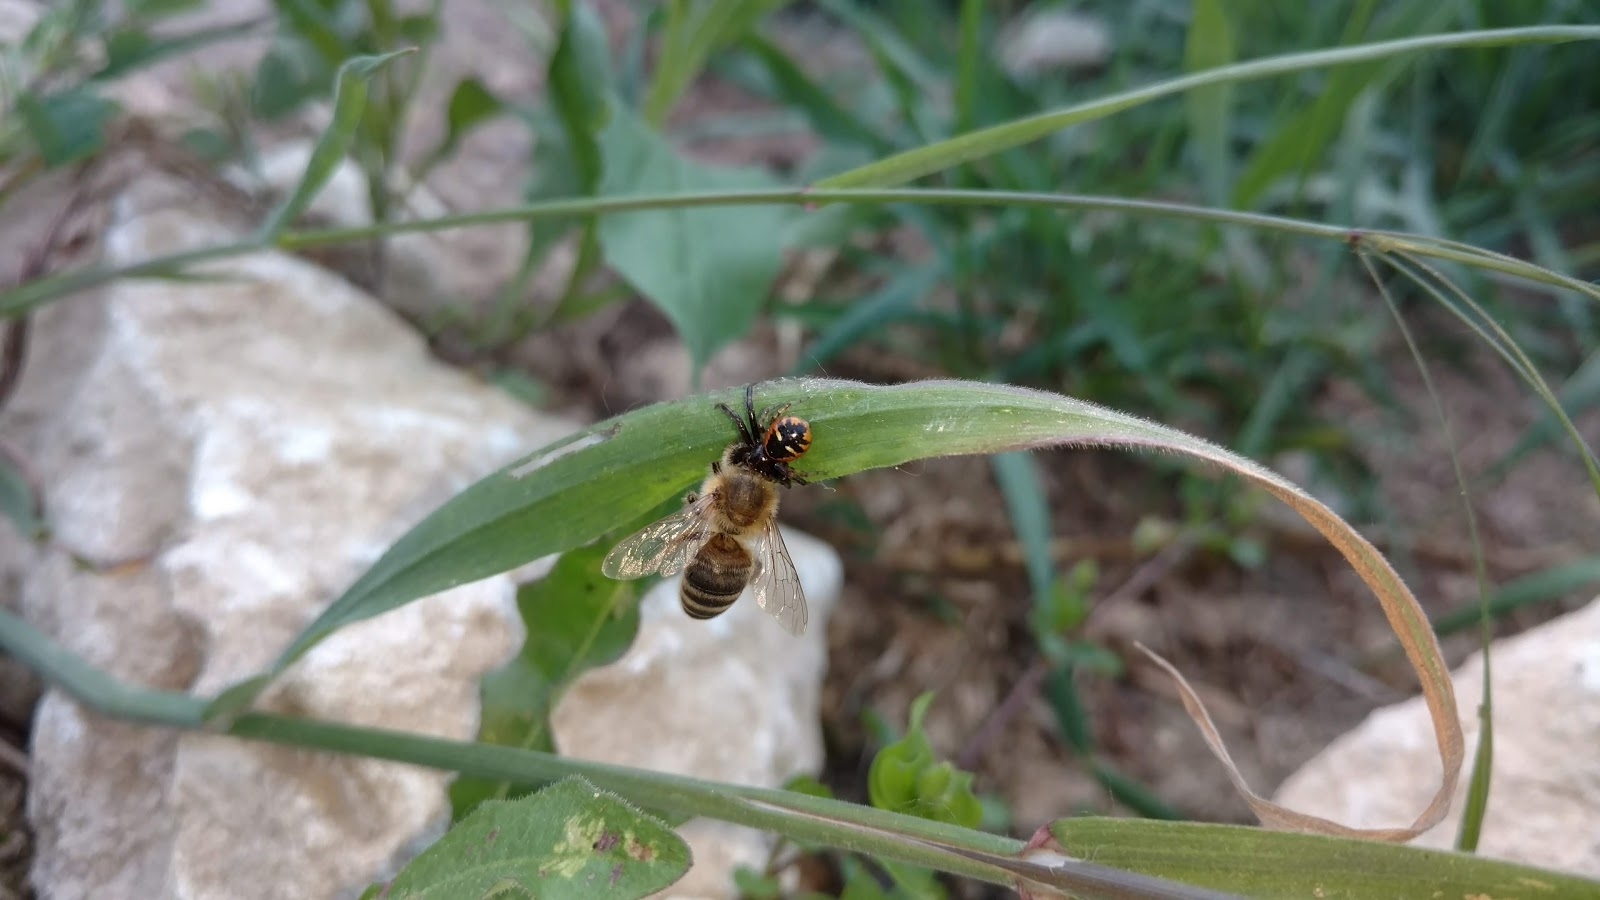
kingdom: Animalia
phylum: Arthropoda
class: Arachnida
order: Araneae
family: Thomisidae
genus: Synema
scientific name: Synema globosum
